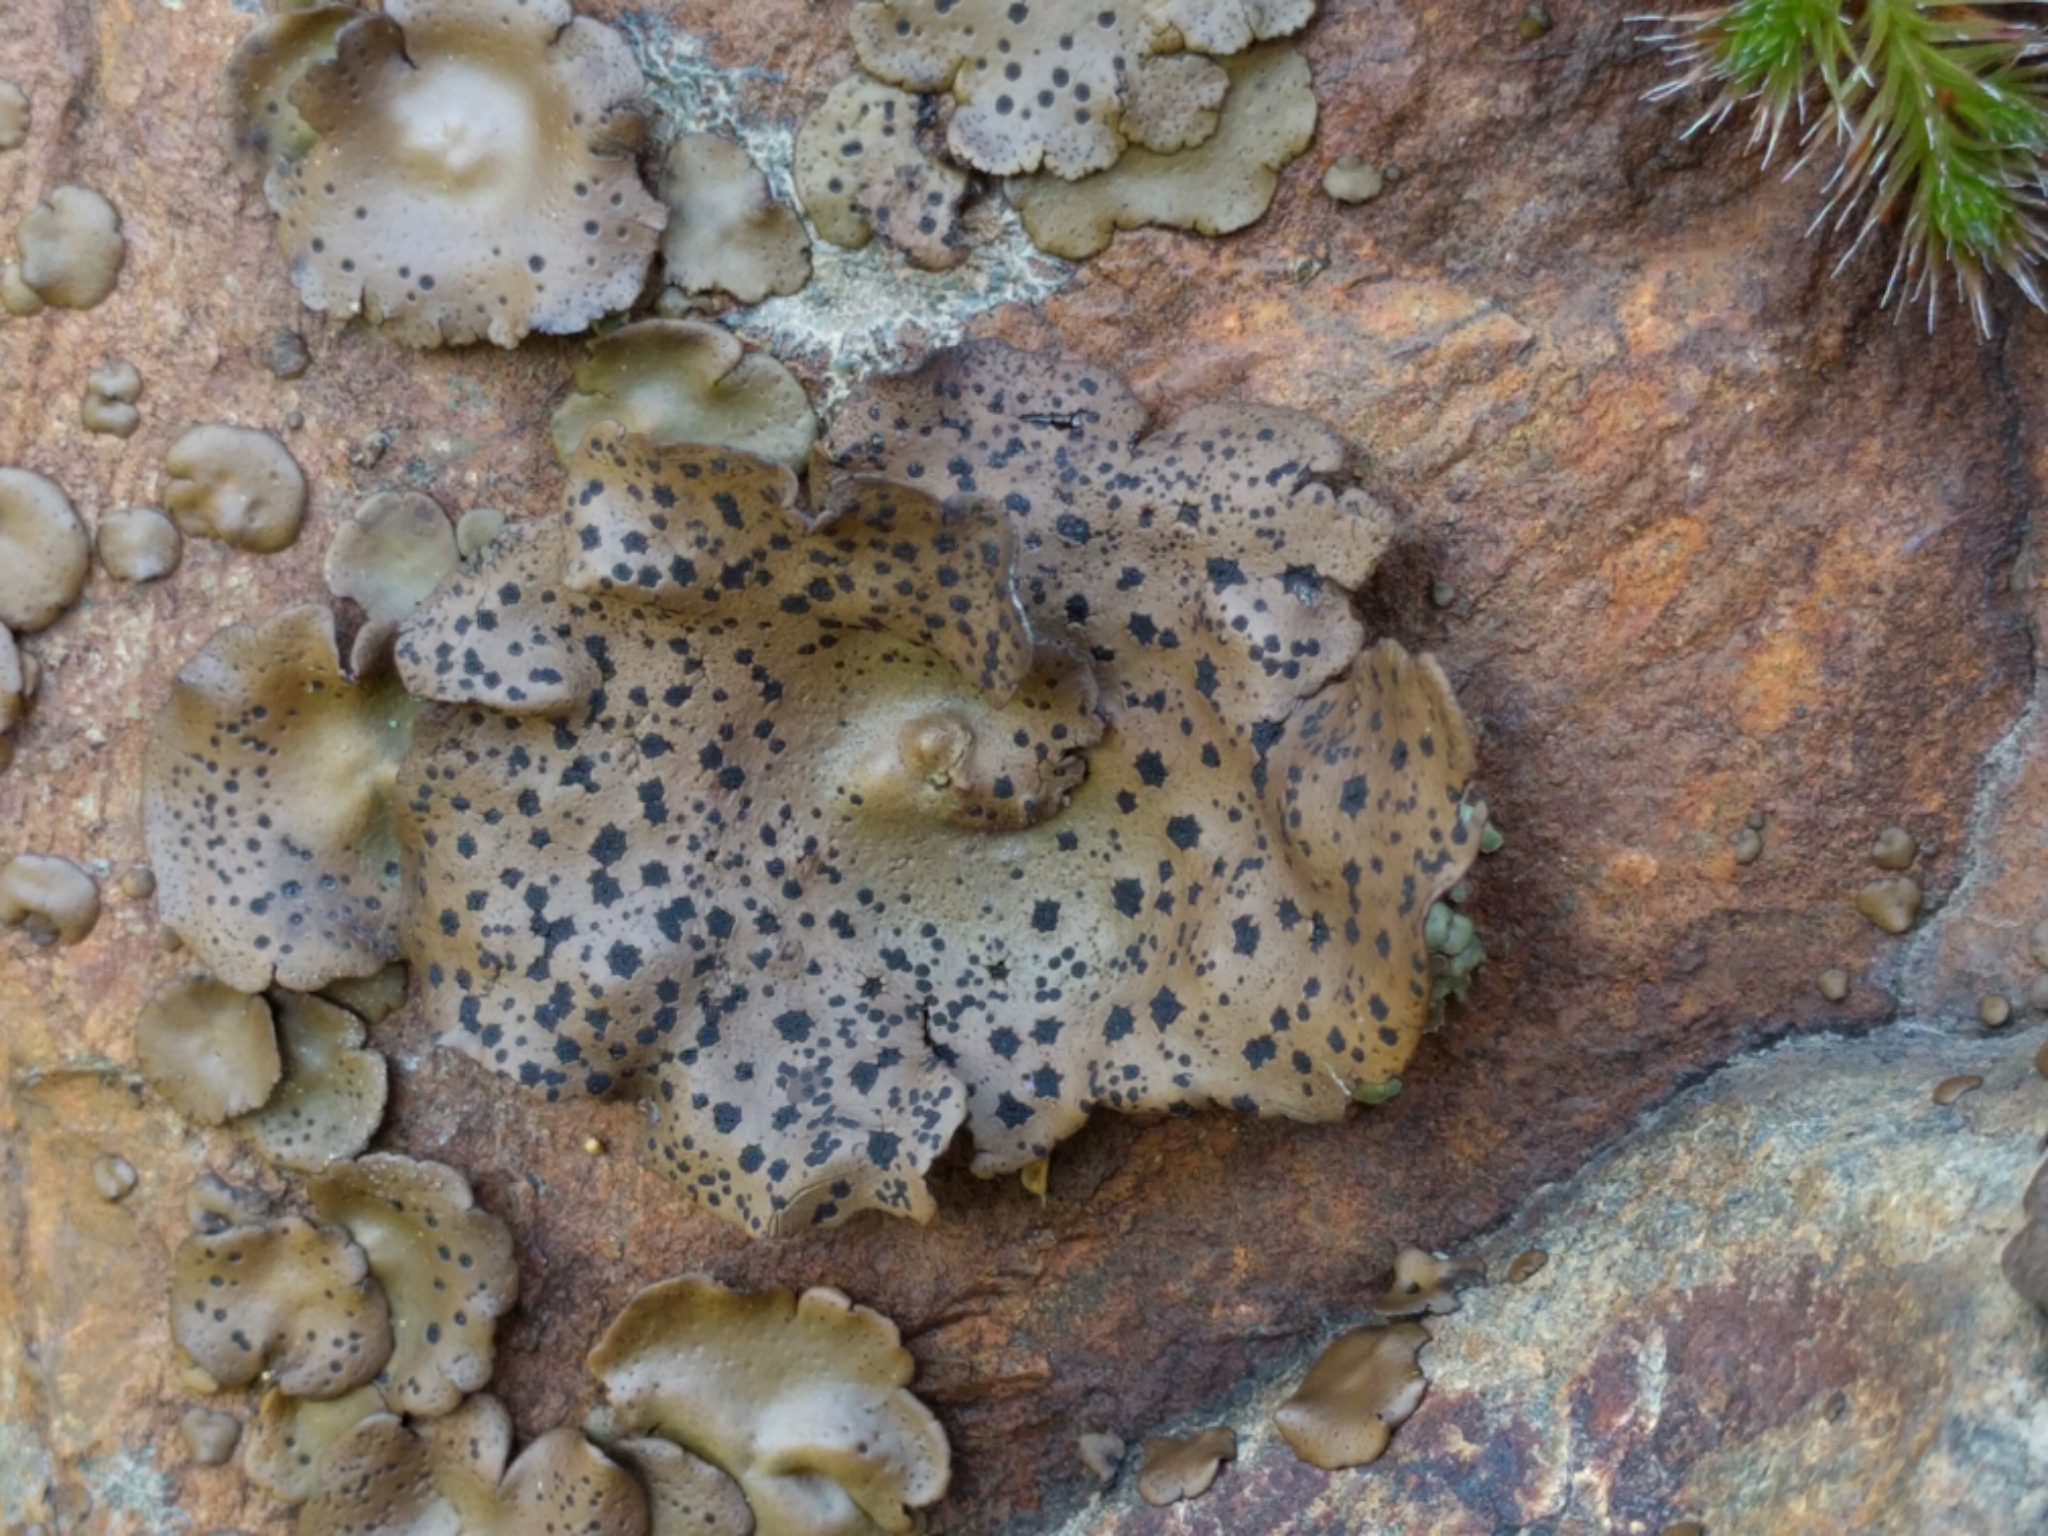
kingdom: Fungi
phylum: Ascomycota
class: Lecanoromycetes
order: Umbilicariales
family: Umbilicariaceae
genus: Umbilicaria
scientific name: Umbilicaria phaea
